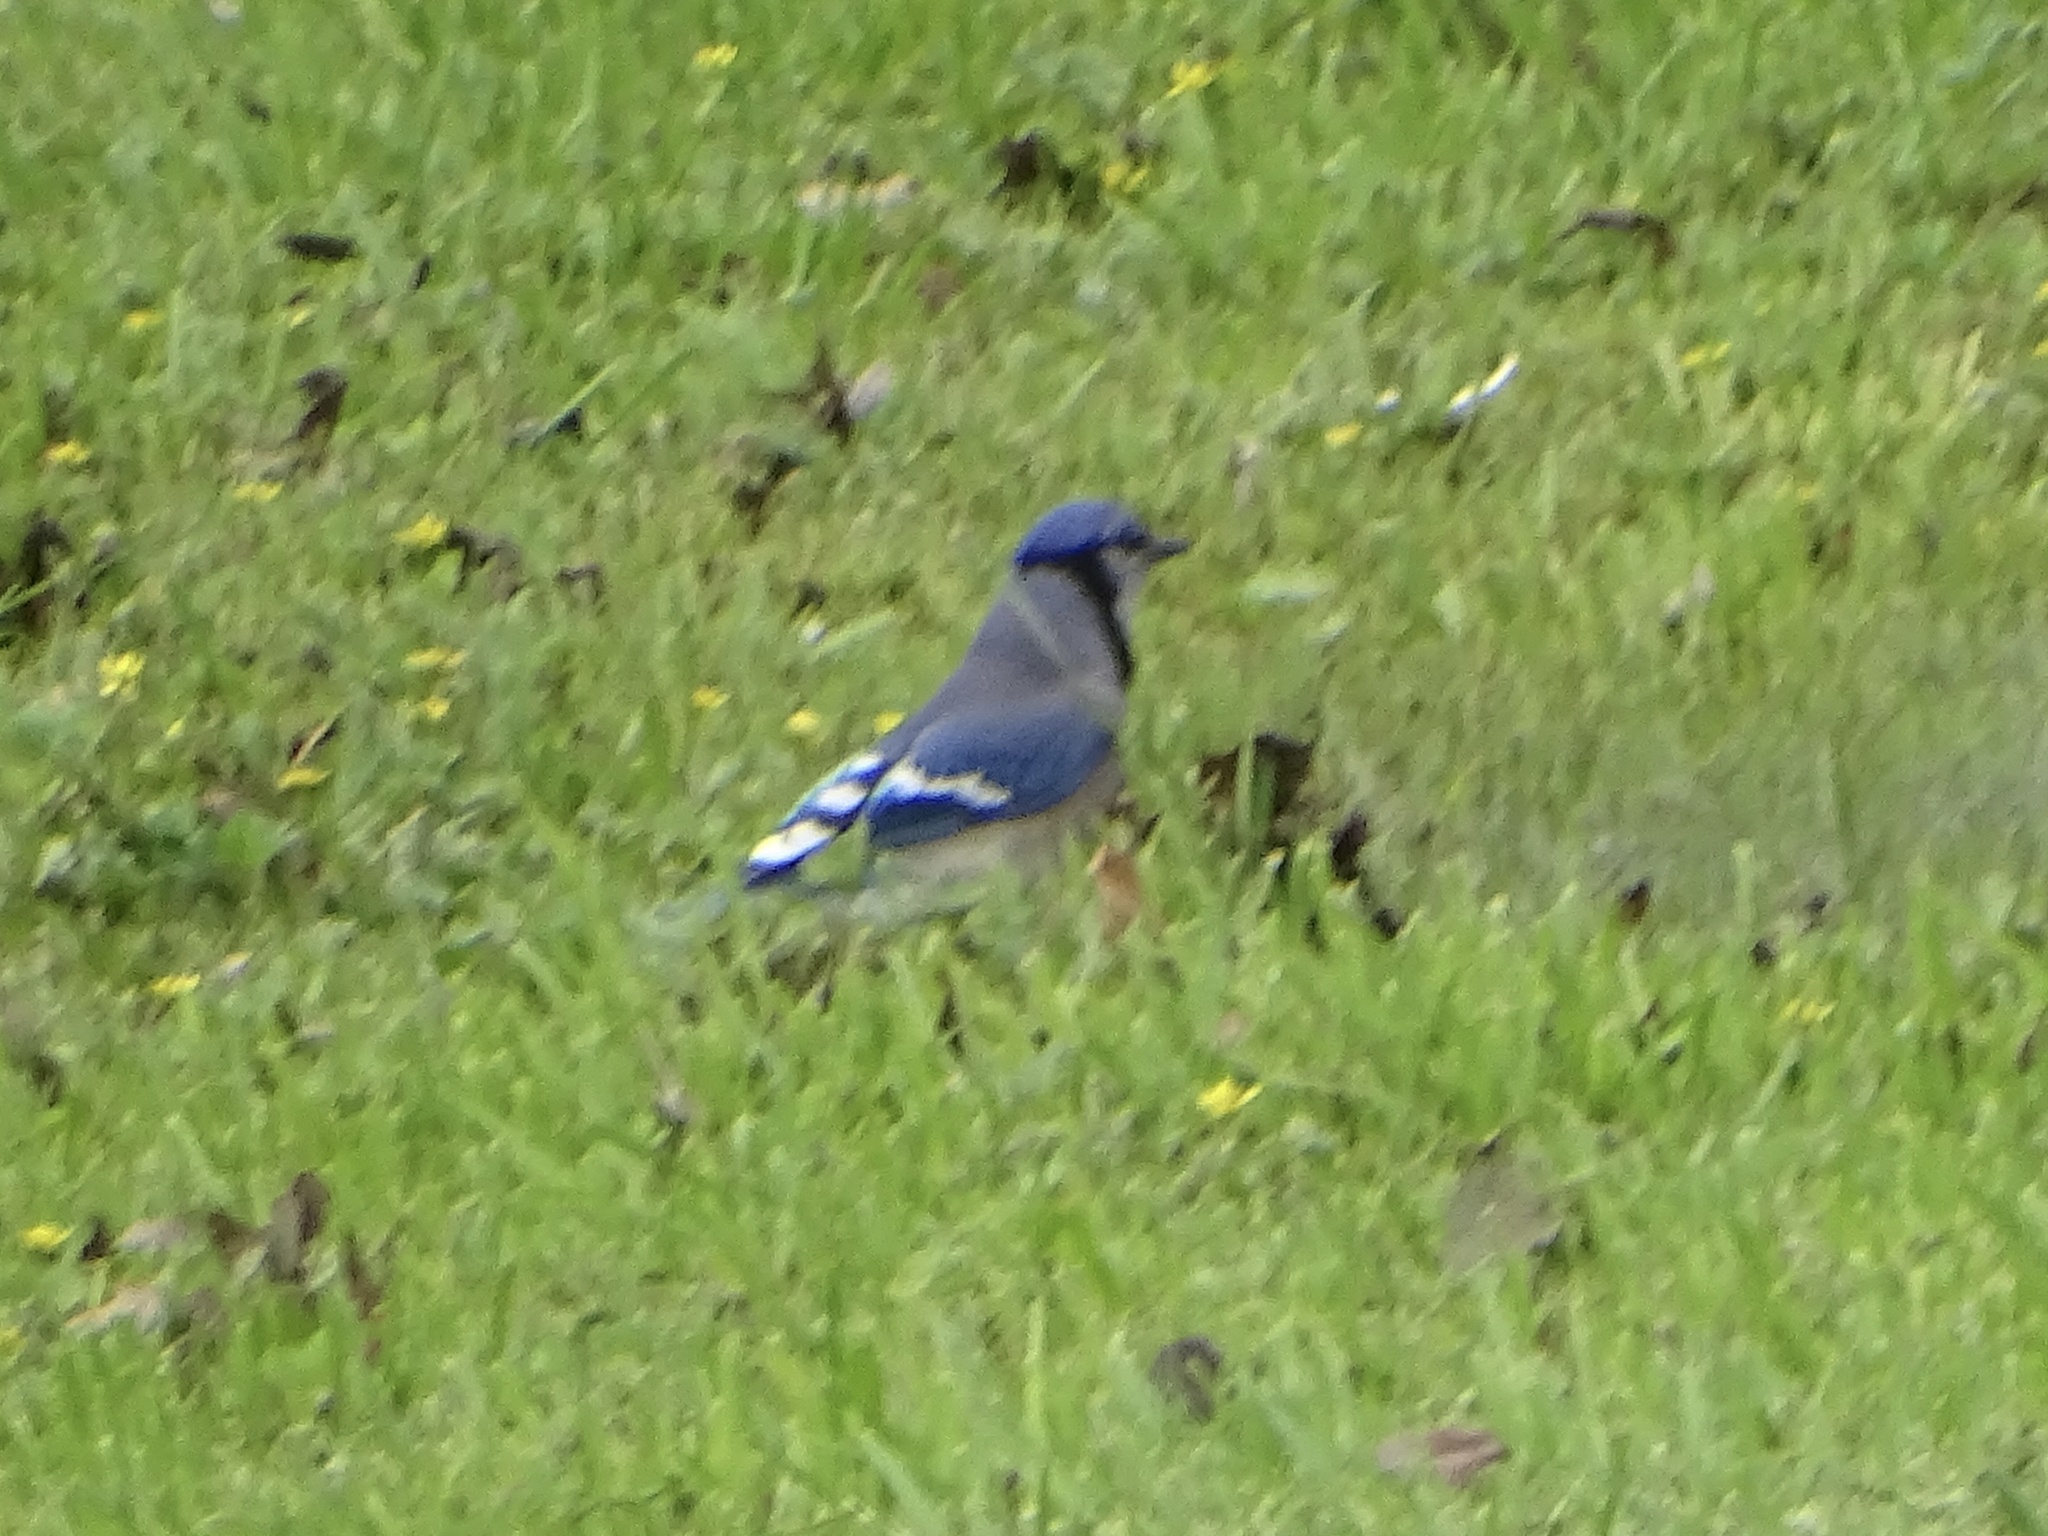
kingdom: Animalia
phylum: Chordata
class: Aves
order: Passeriformes
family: Corvidae
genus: Cyanocitta
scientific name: Cyanocitta cristata
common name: Blue jay
